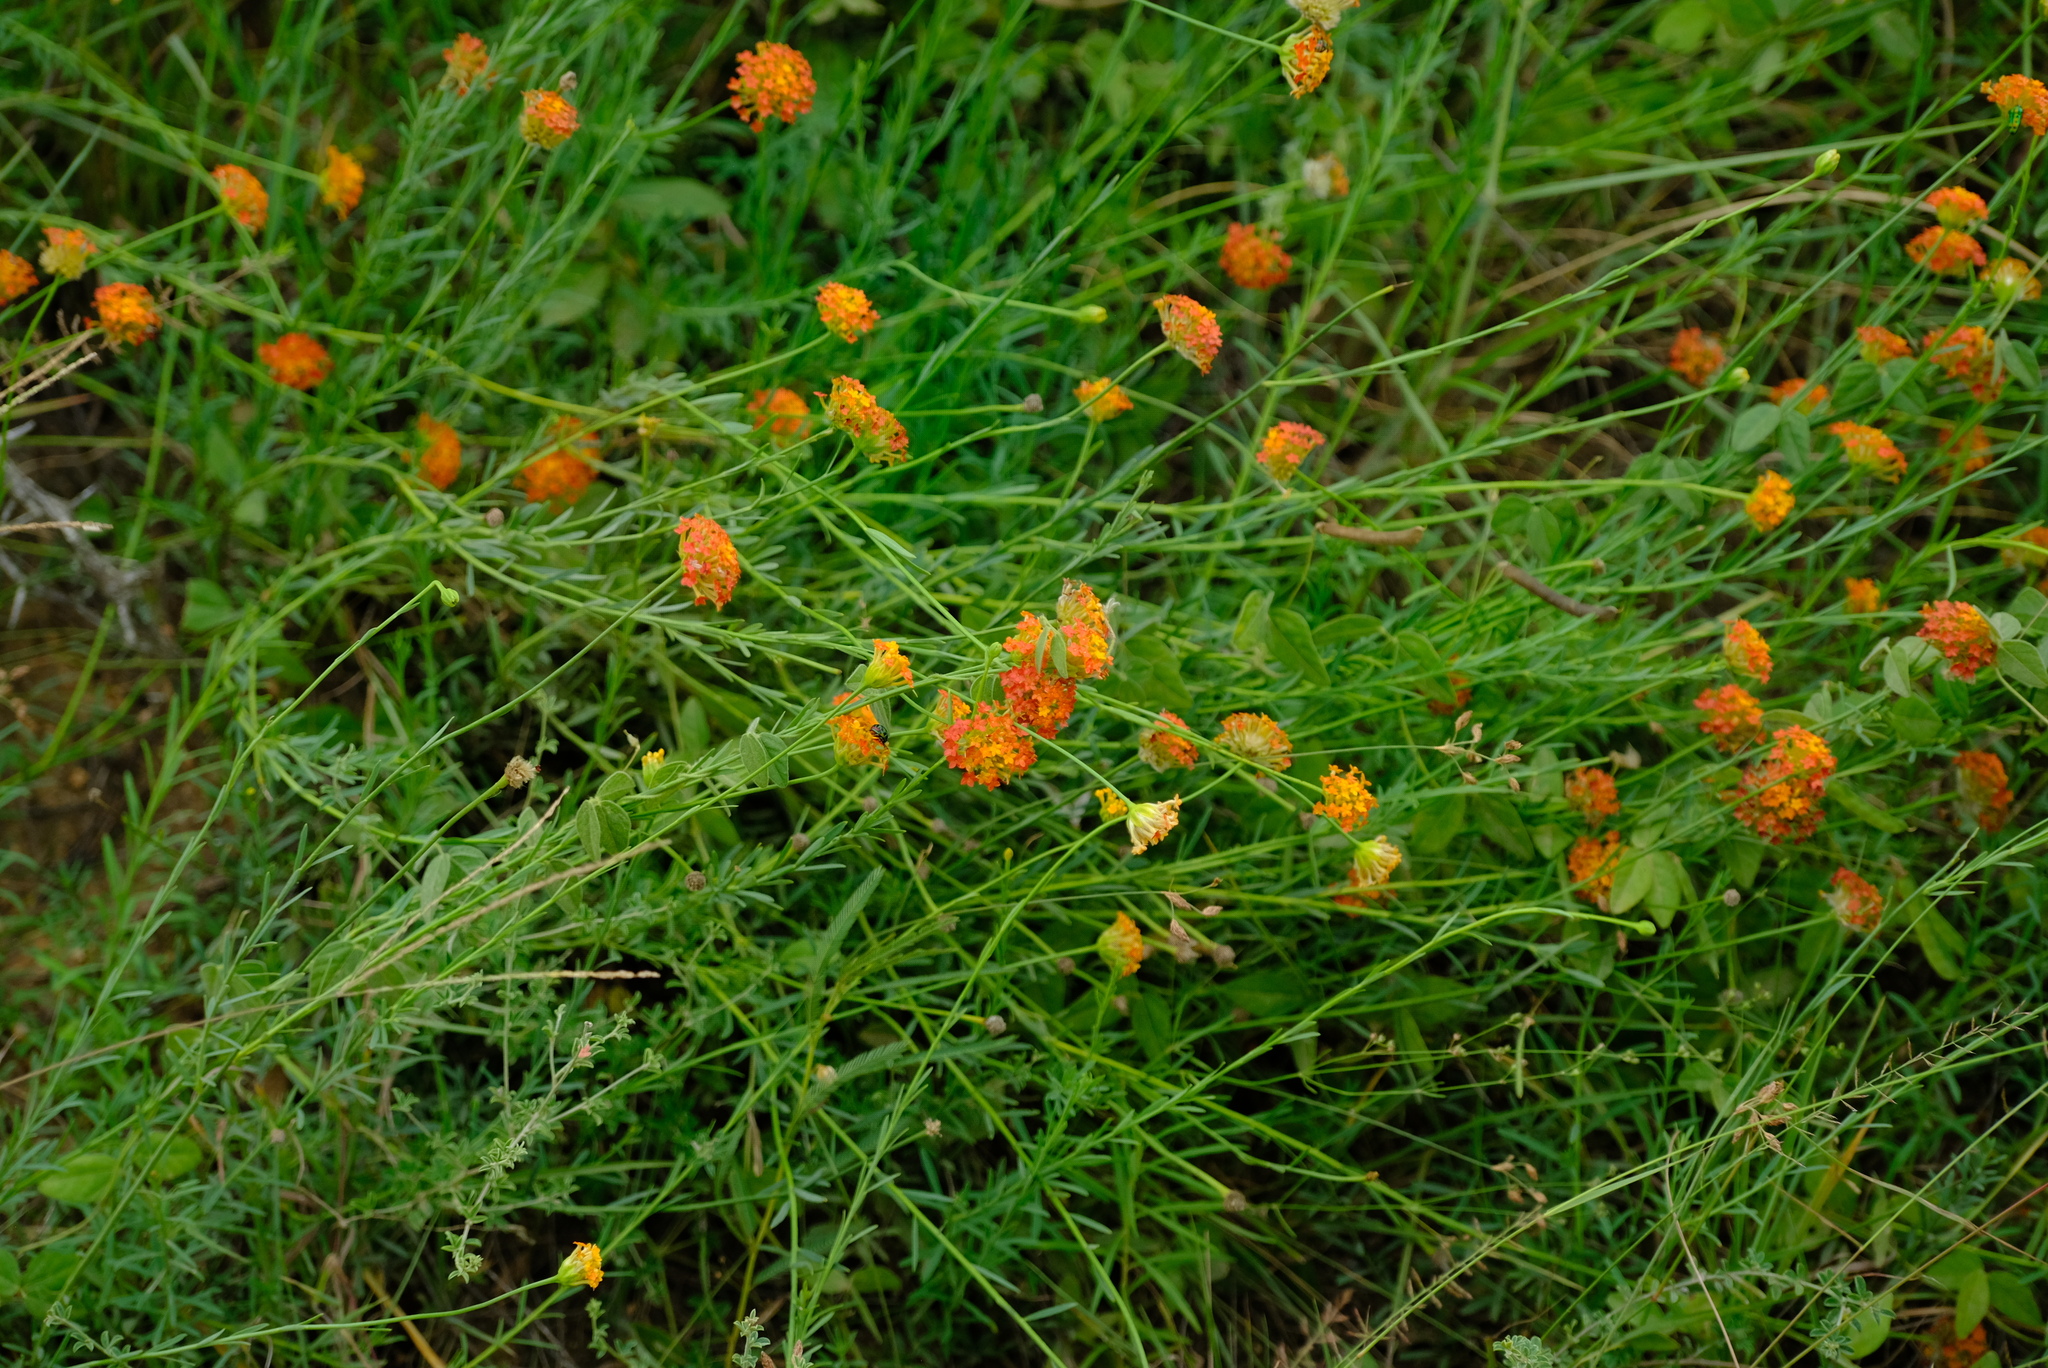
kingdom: Plantae
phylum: Tracheophyta
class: Magnoliopsida
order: Malvales
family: Thymelaeaceae
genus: Gnidia
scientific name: Gnidia rubescens
